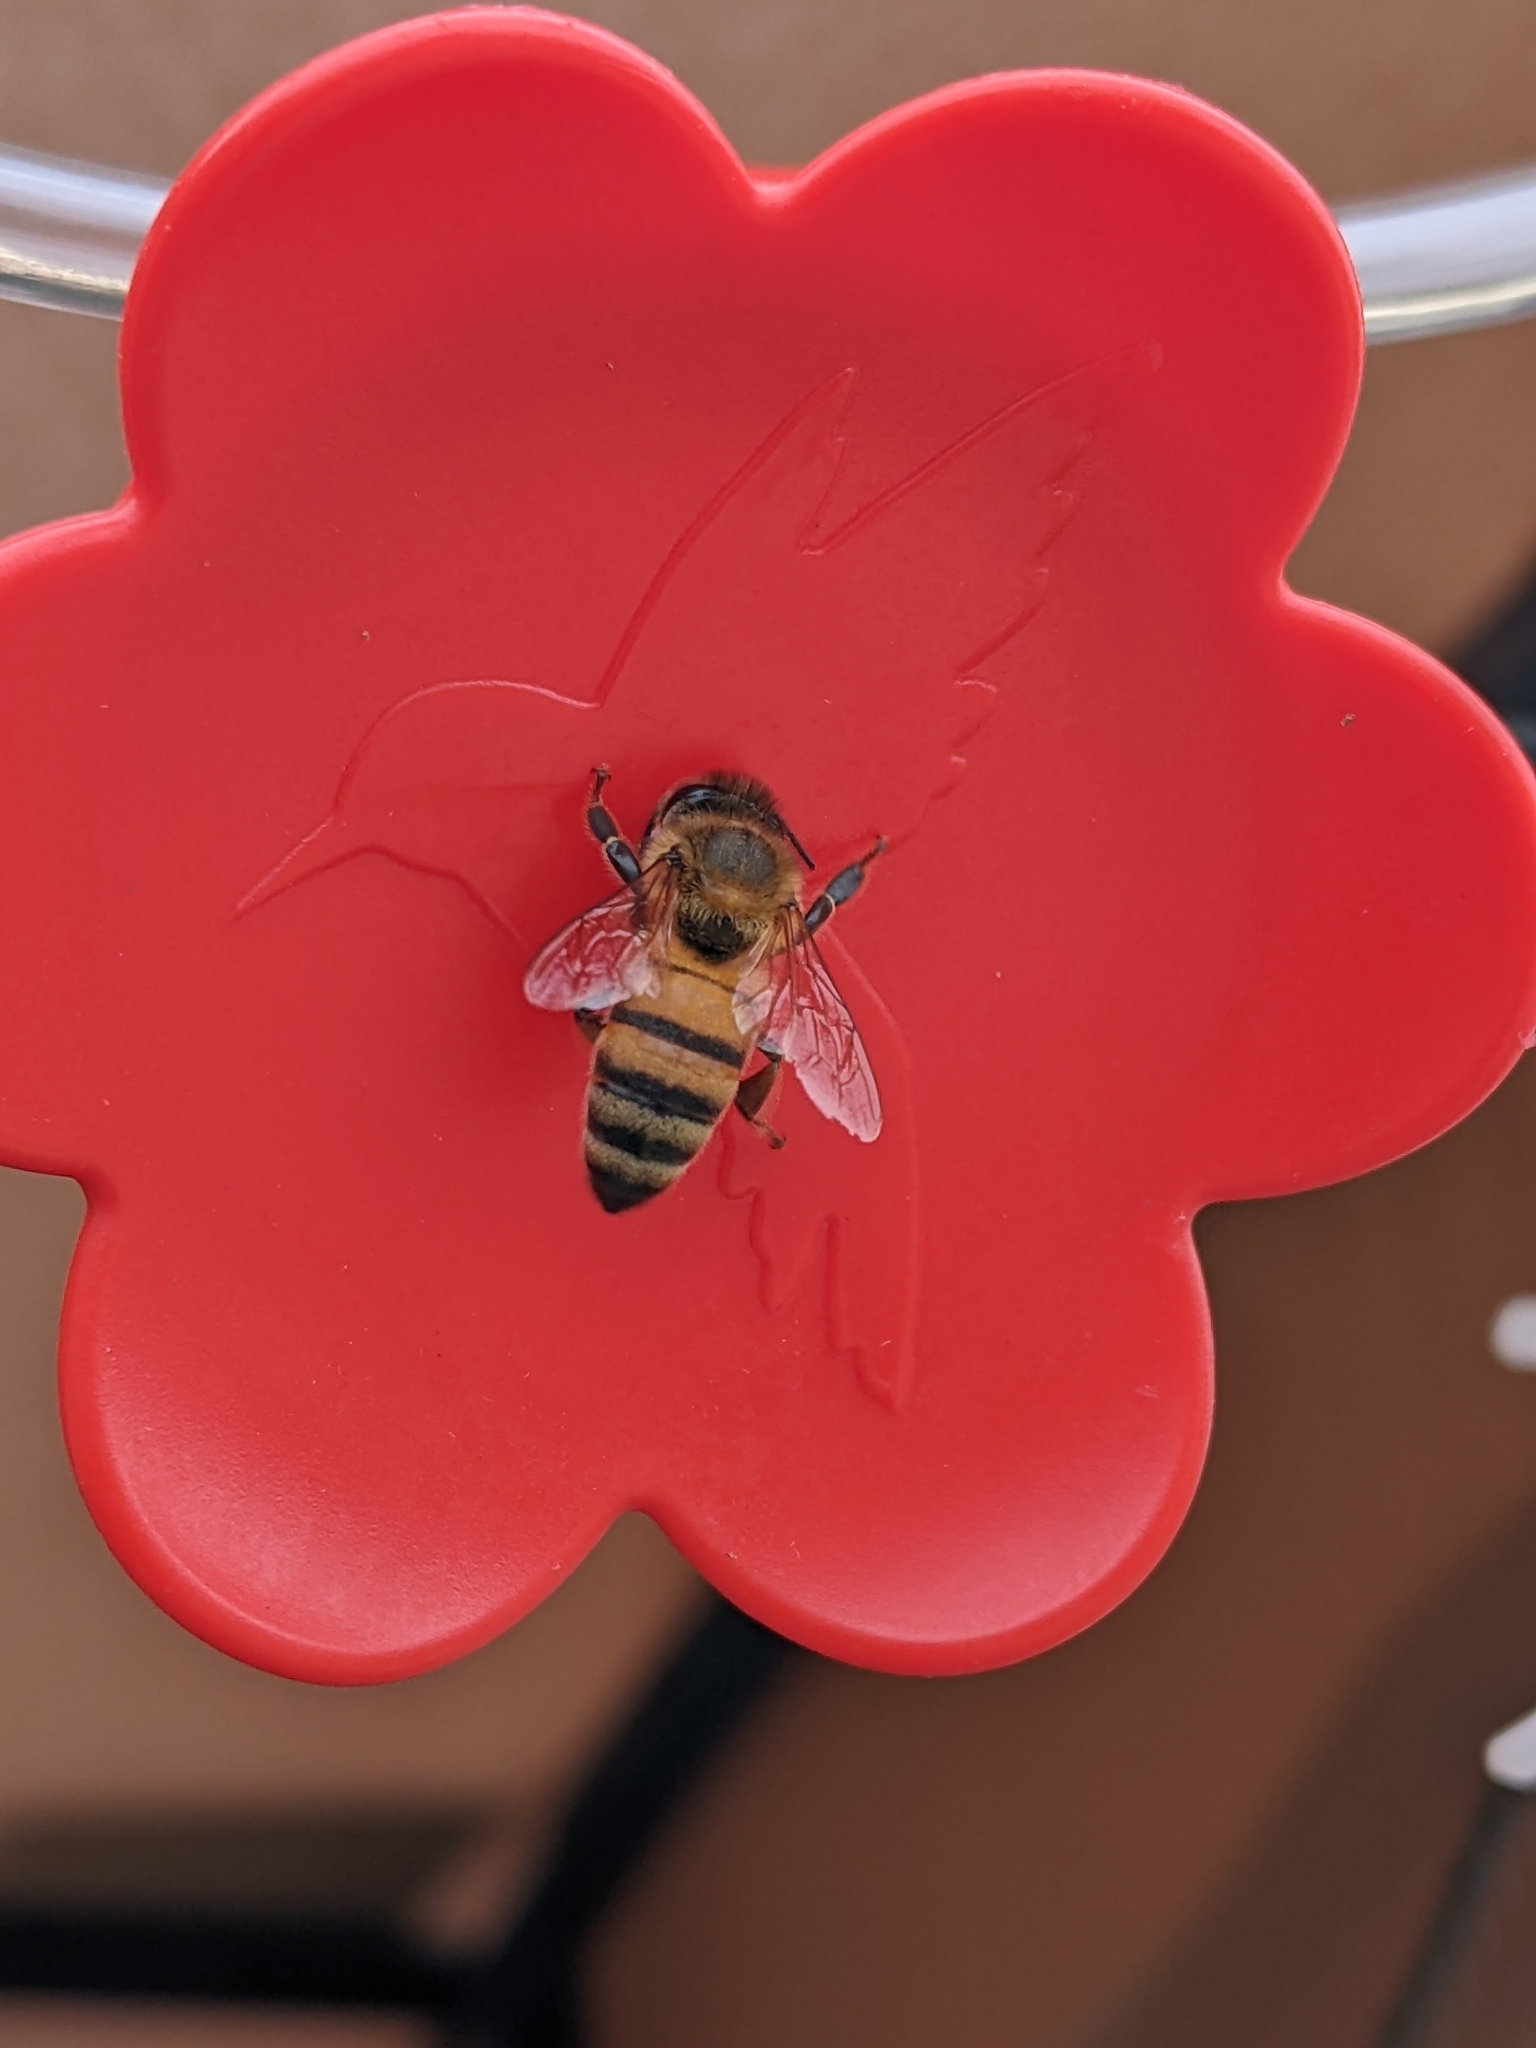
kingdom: Animalia
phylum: Arthropoda
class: Insecta
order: Hymenoptera
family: Apidae
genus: Apis
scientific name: Apis mellifera
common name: Honey bee
